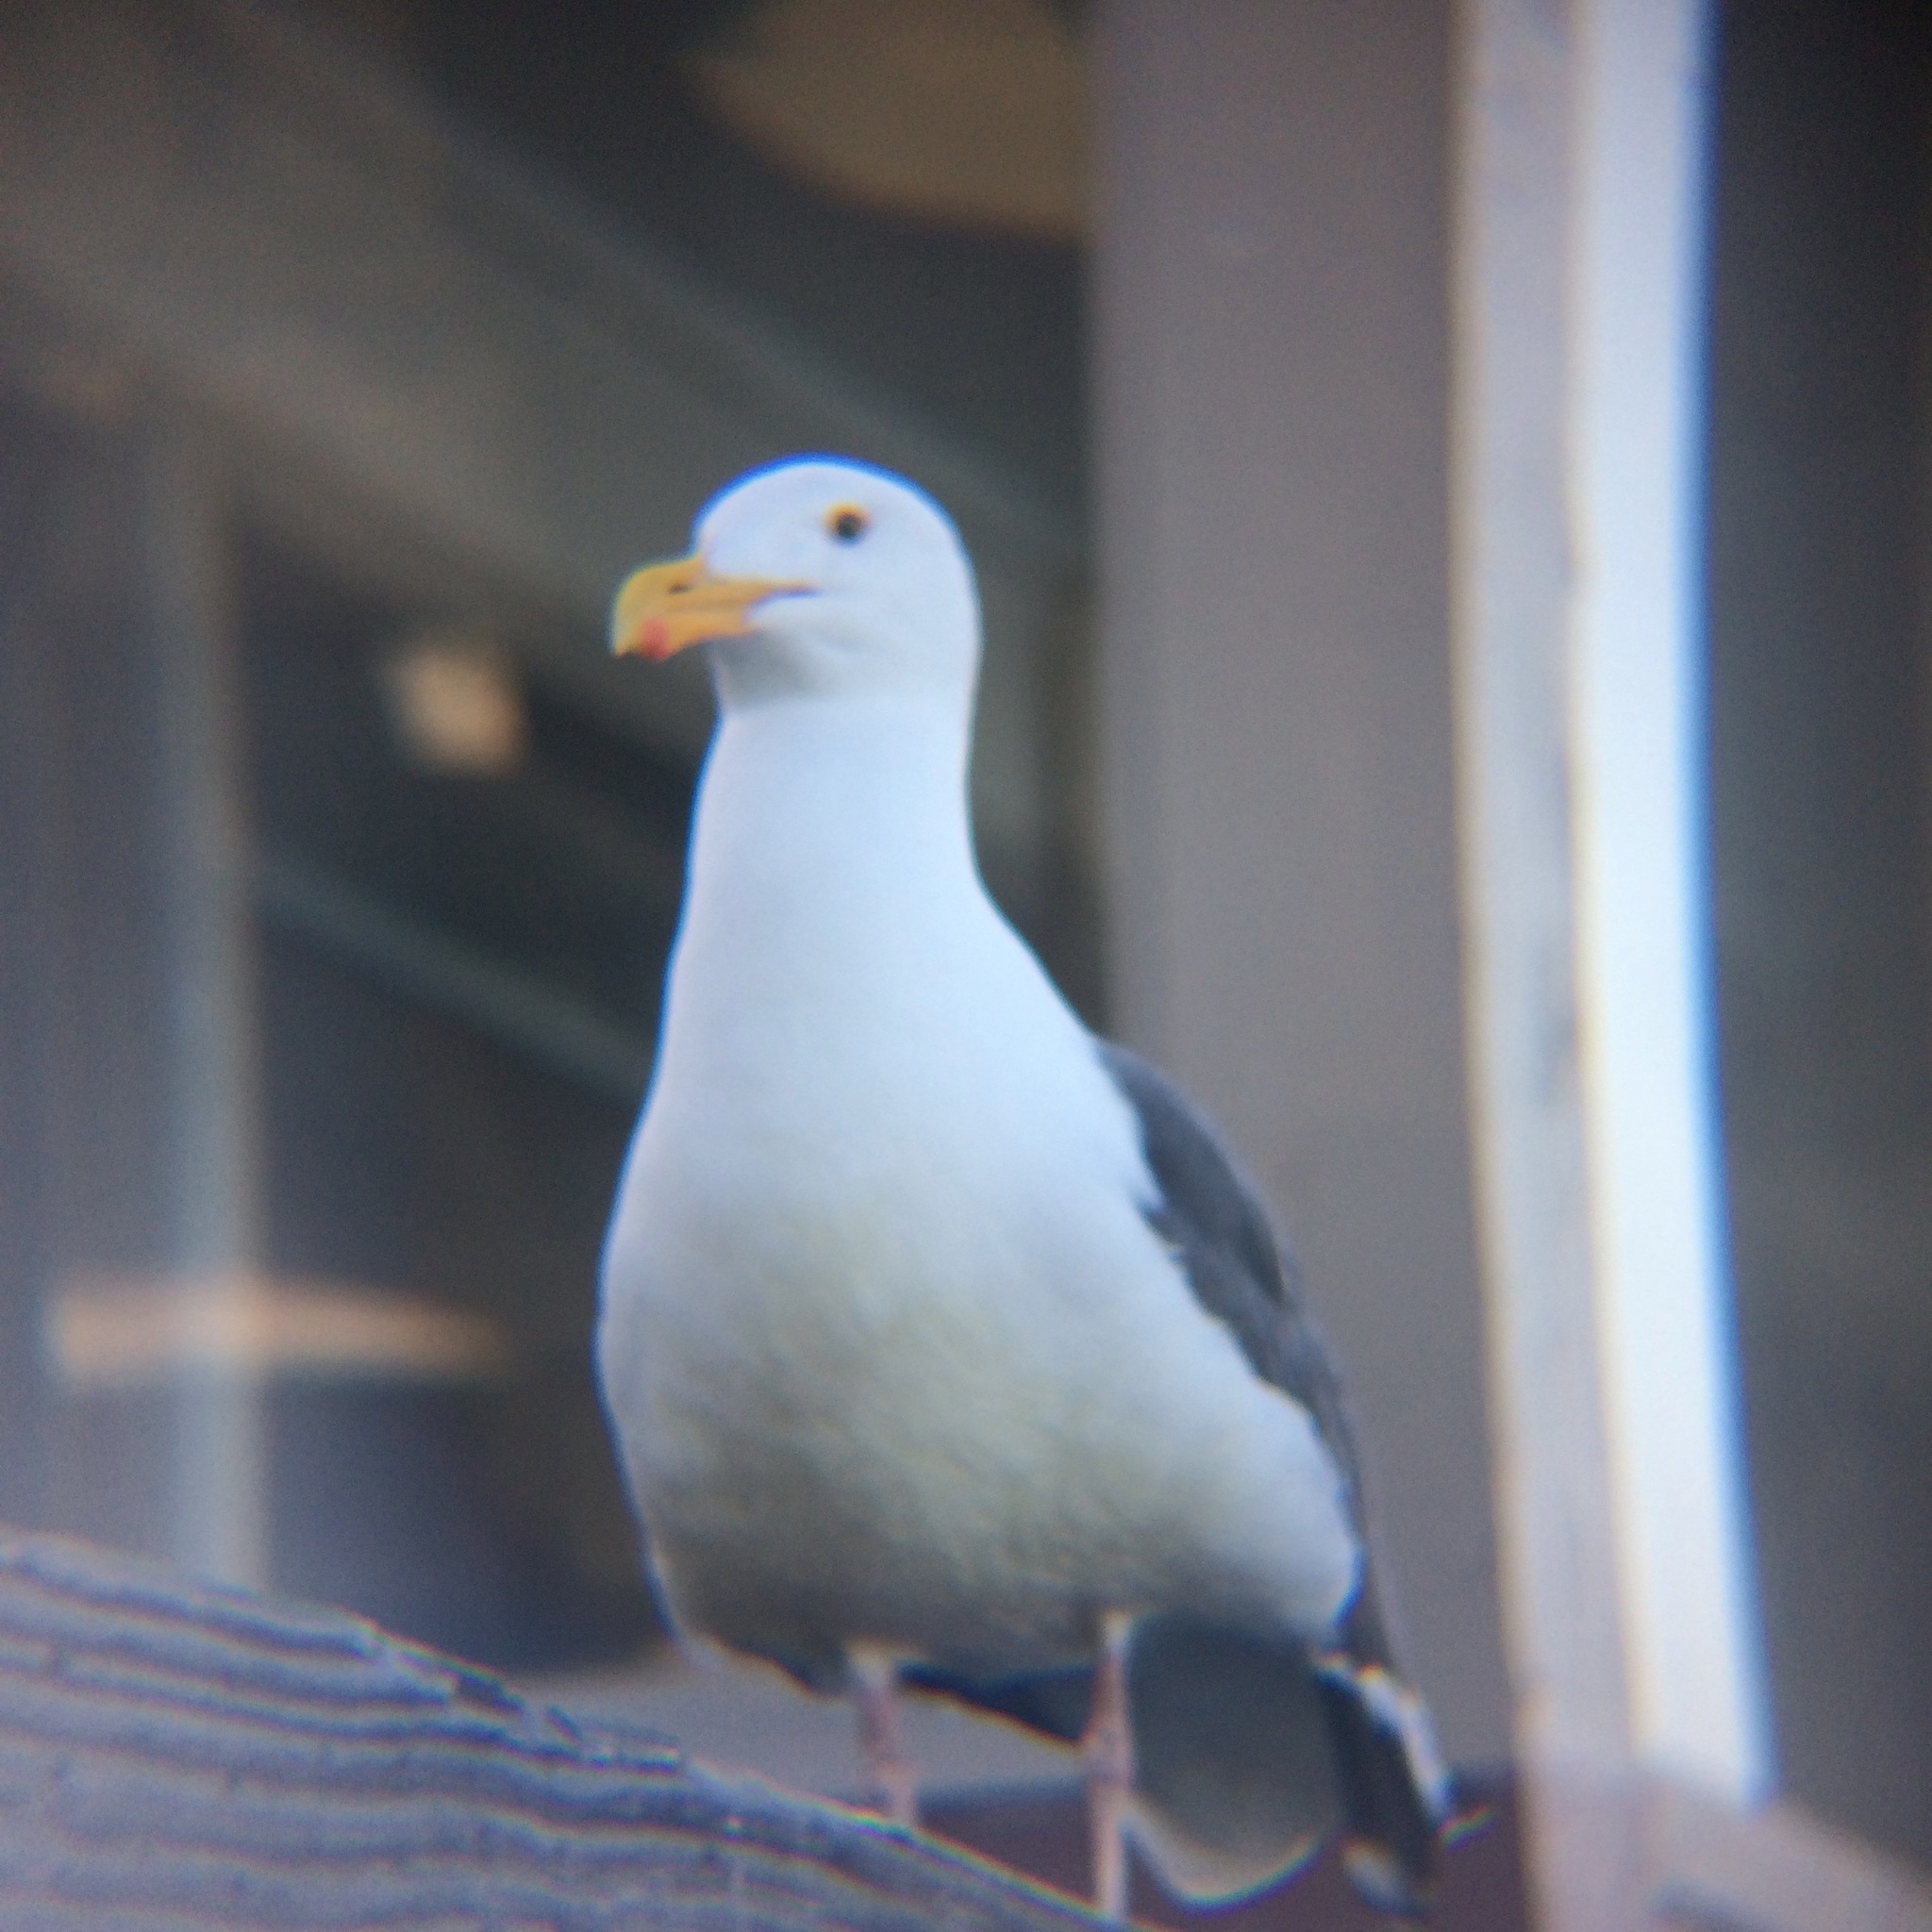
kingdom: Animalia
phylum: Chordata
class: Aves
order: Charadriiformes
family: Laridae
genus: Larus
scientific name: Larus occidentalis
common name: Western gull
